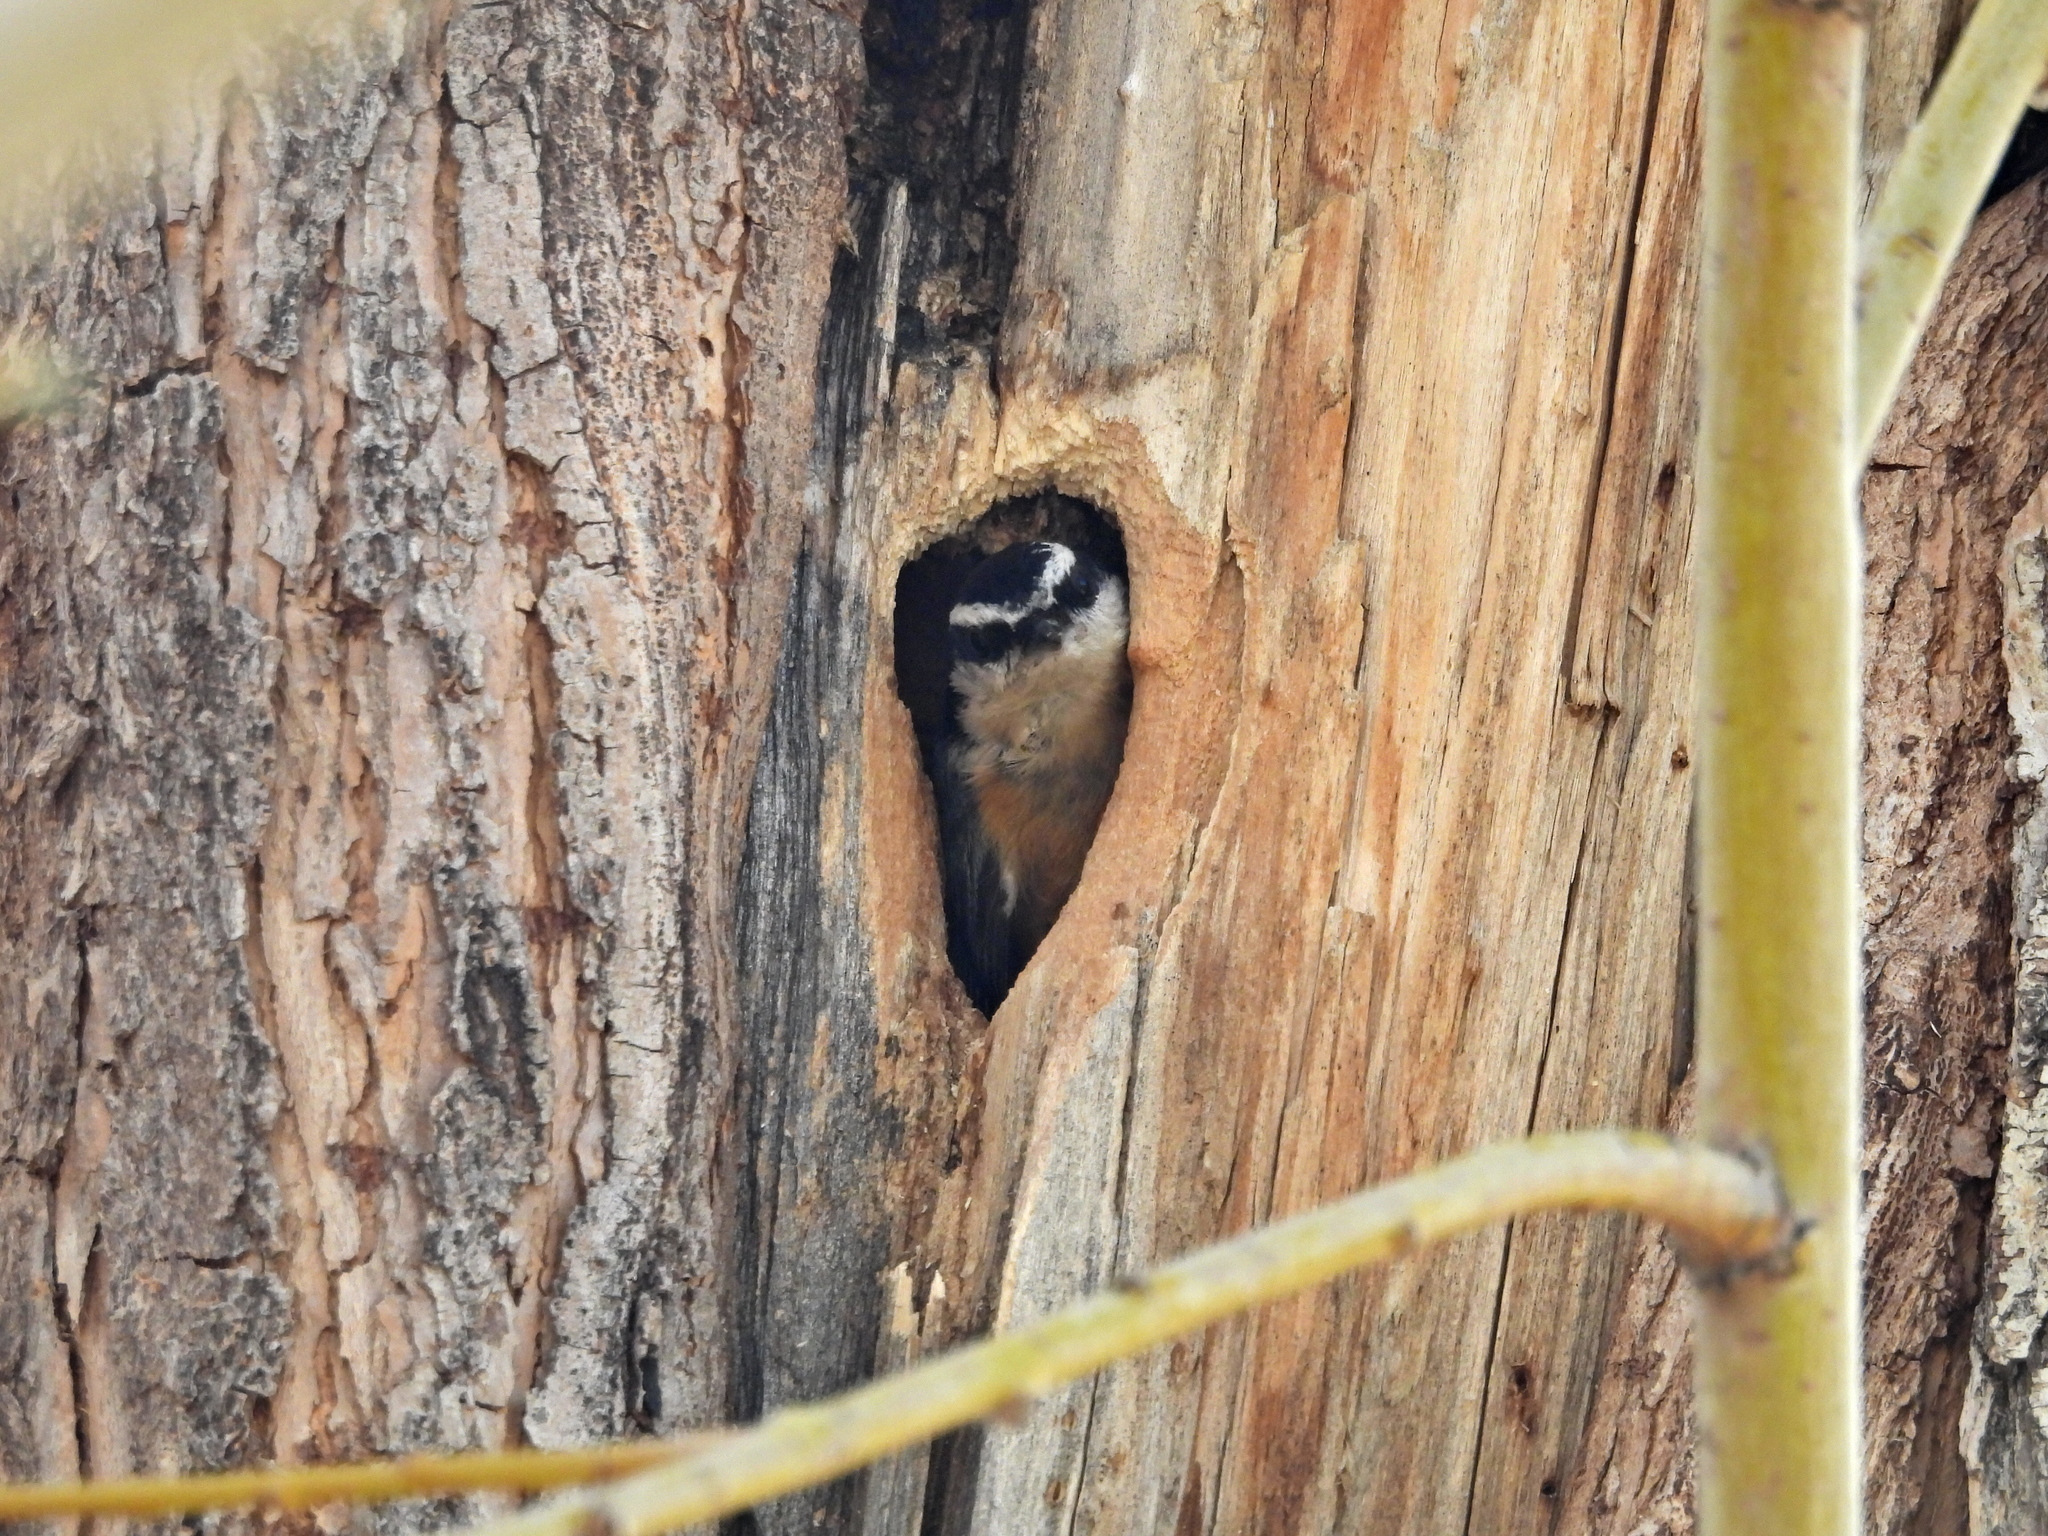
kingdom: Animalia
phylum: Chordata
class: Aves
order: Passeriformes
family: Sittidae
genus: Sitta
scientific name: Sitta canadensis
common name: Red-breasted nuthatch
